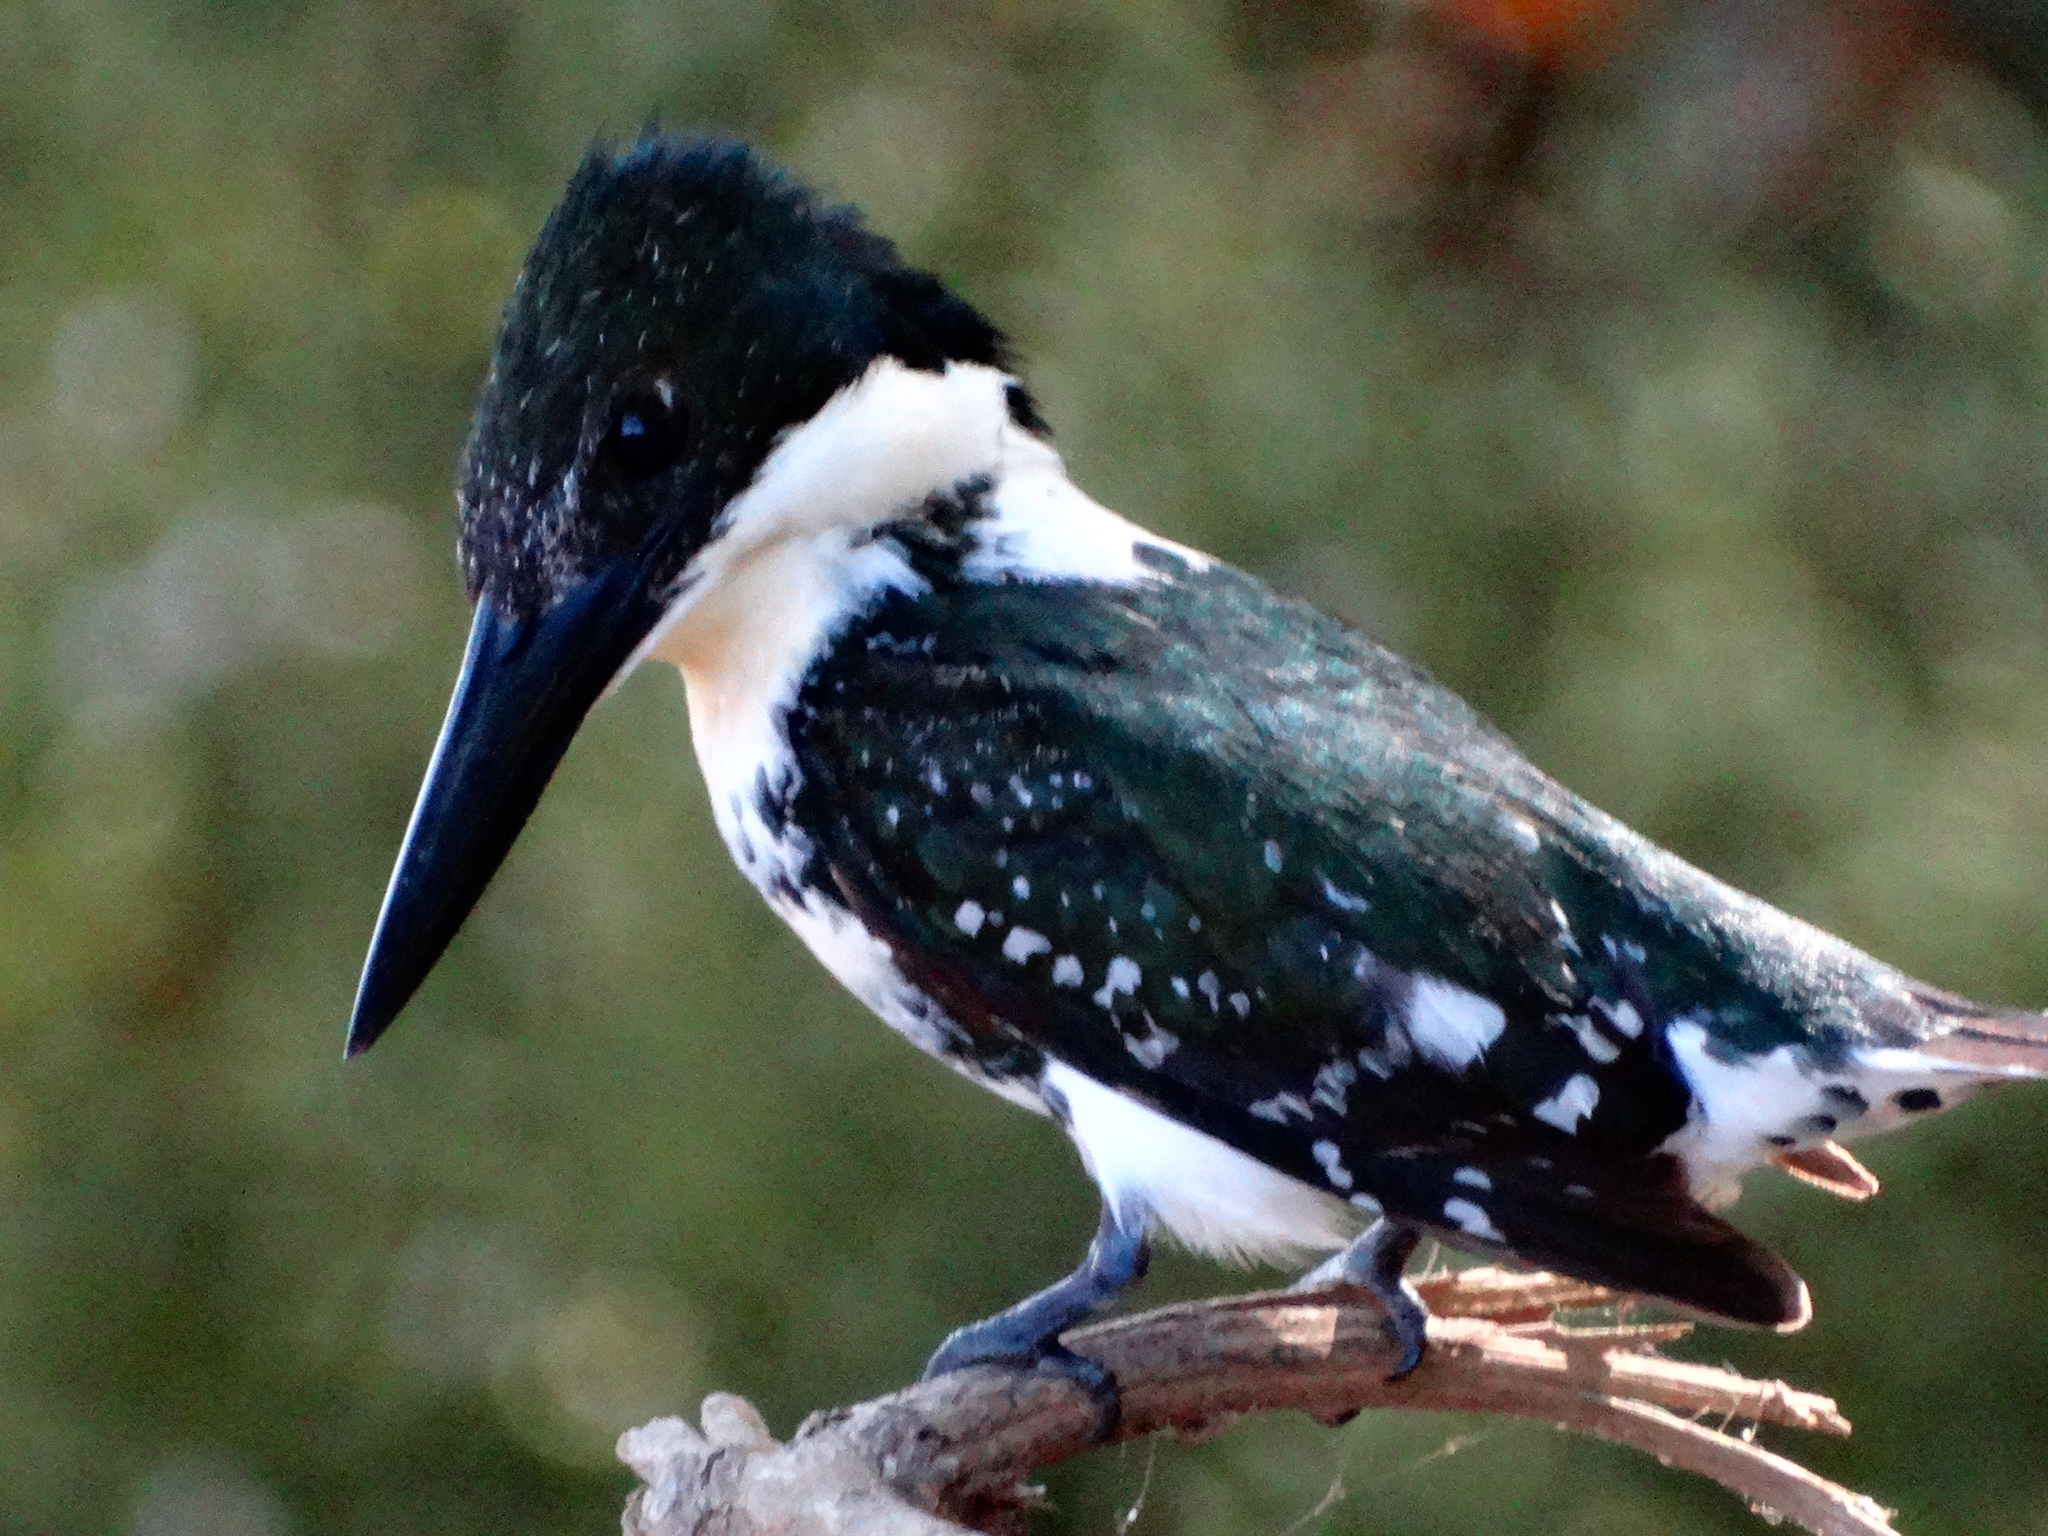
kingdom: Animalia
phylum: Chordata
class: Aves
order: Coraciiformes
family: Alcedinidae
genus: Chloroceryle
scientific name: Chloroceryle americana
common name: Green kingfisher
